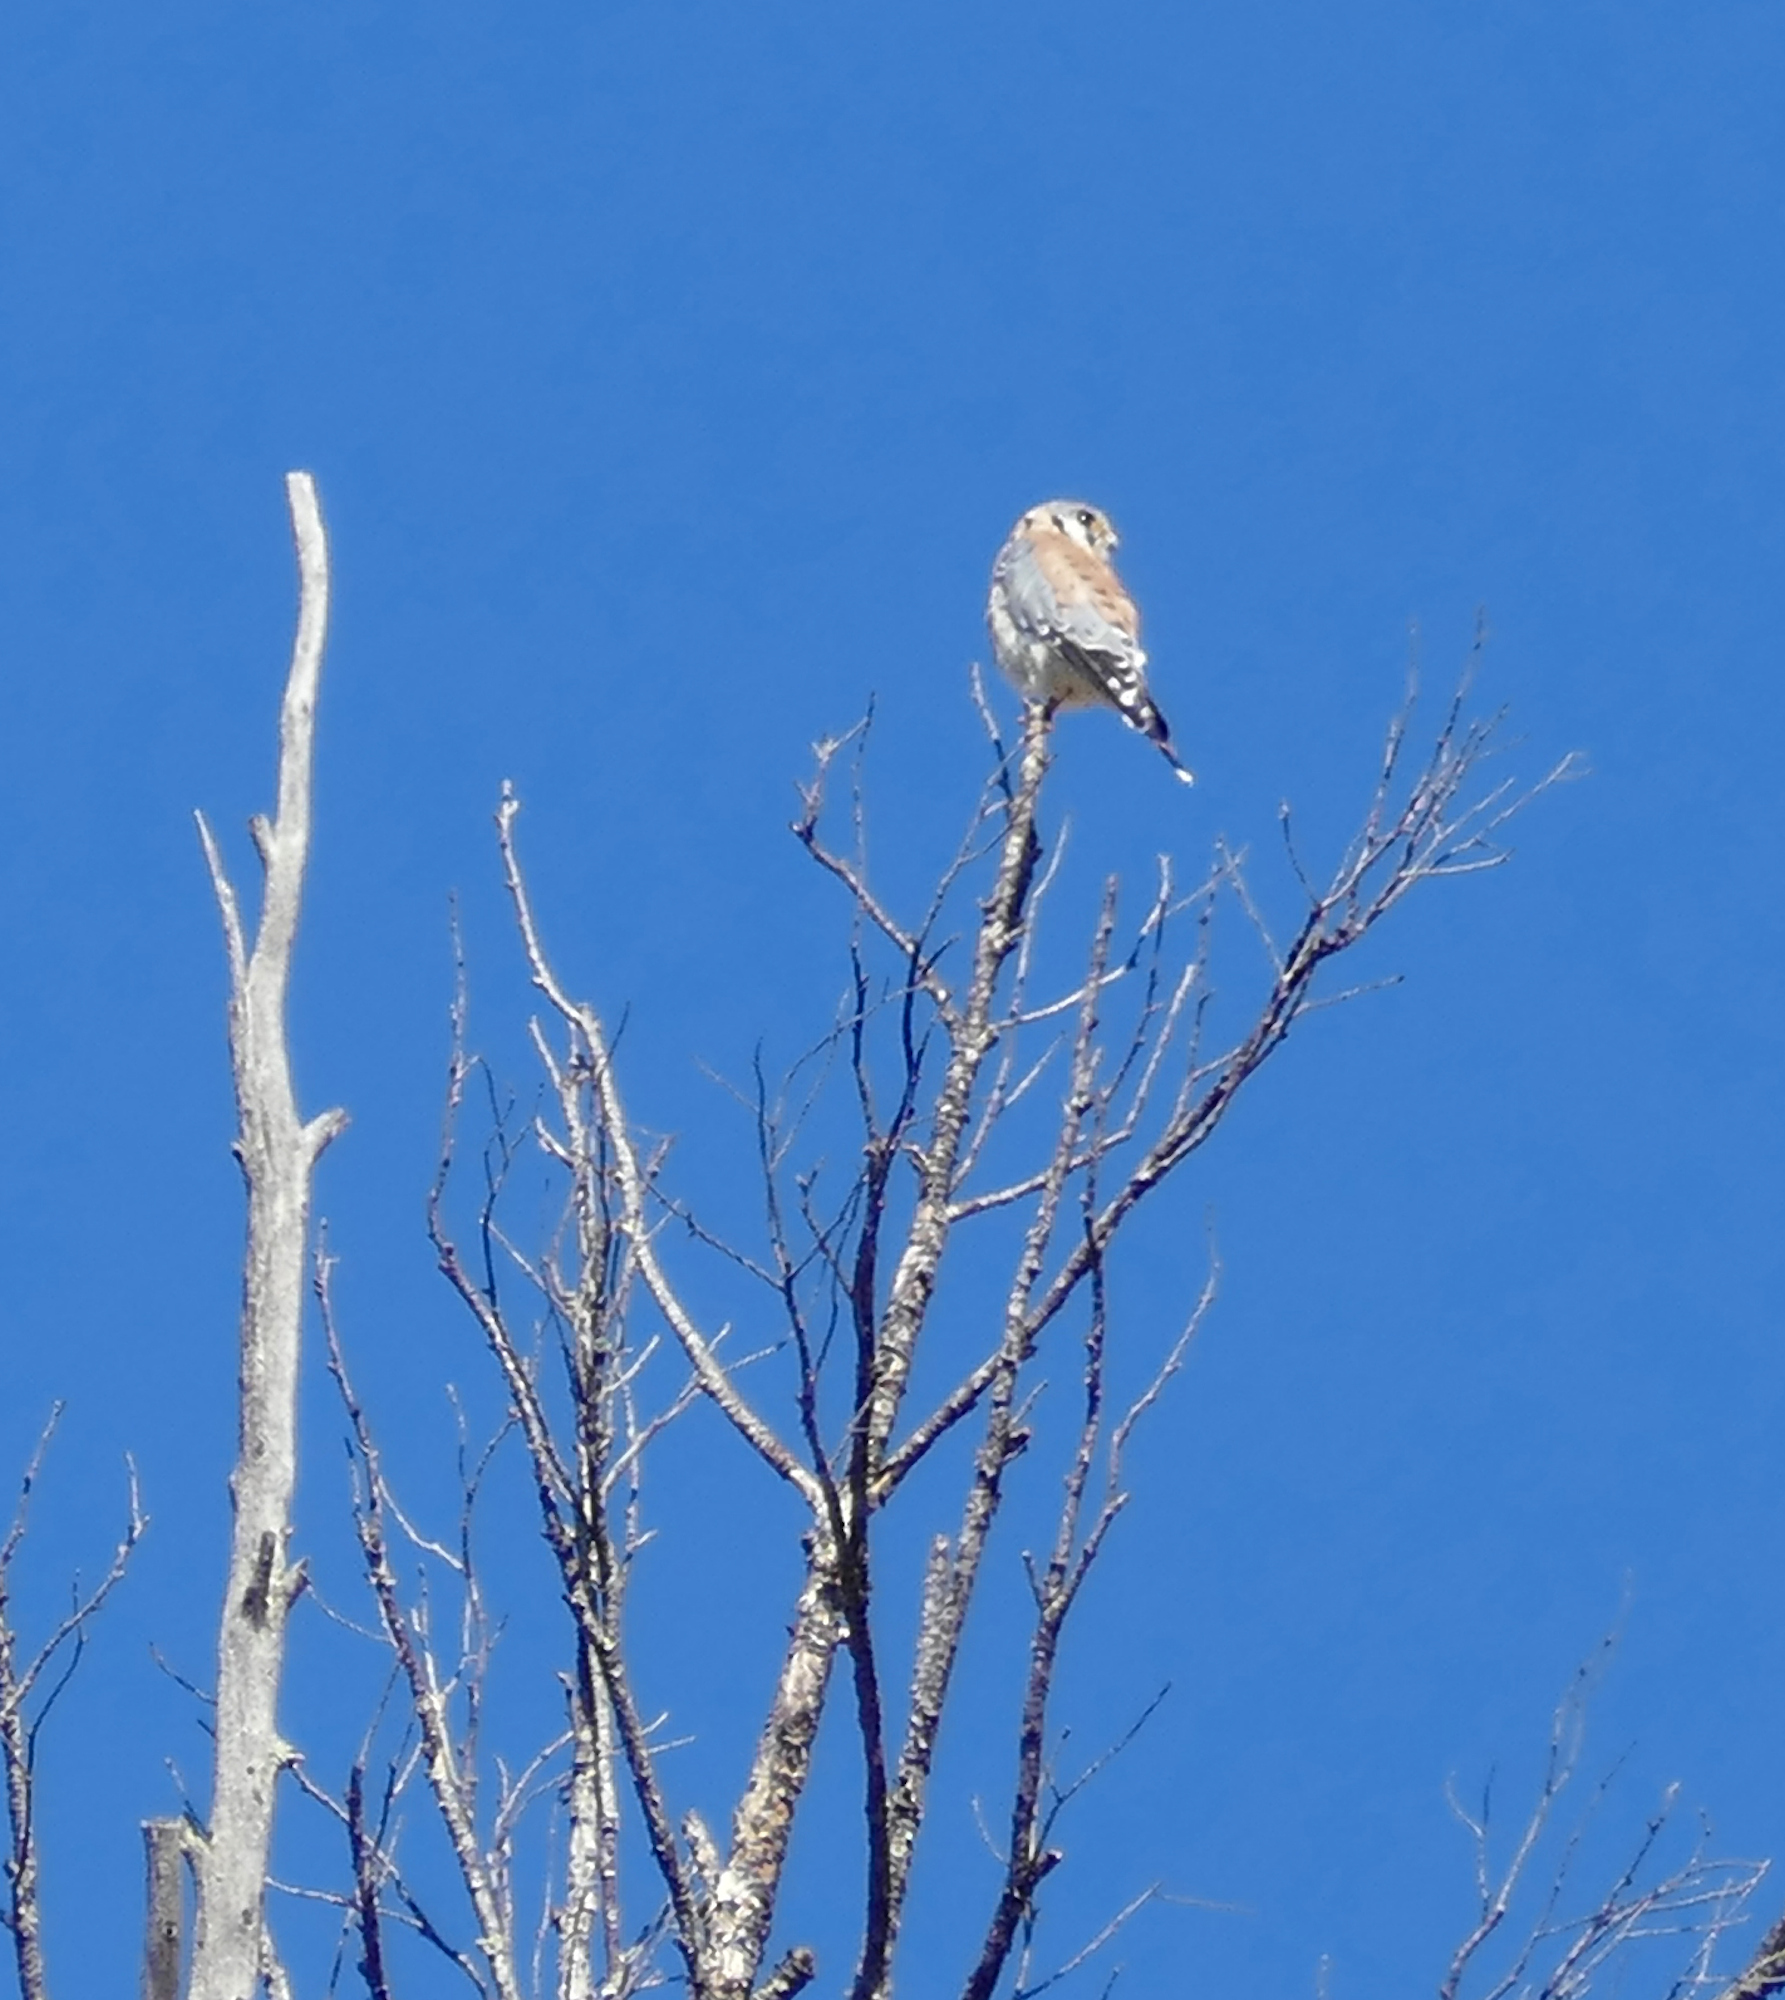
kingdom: Animalia
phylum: Chordata
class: Aves
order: Falconiformes
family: Falconidae
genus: Falco
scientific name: Falco sparverius
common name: American kestrel
